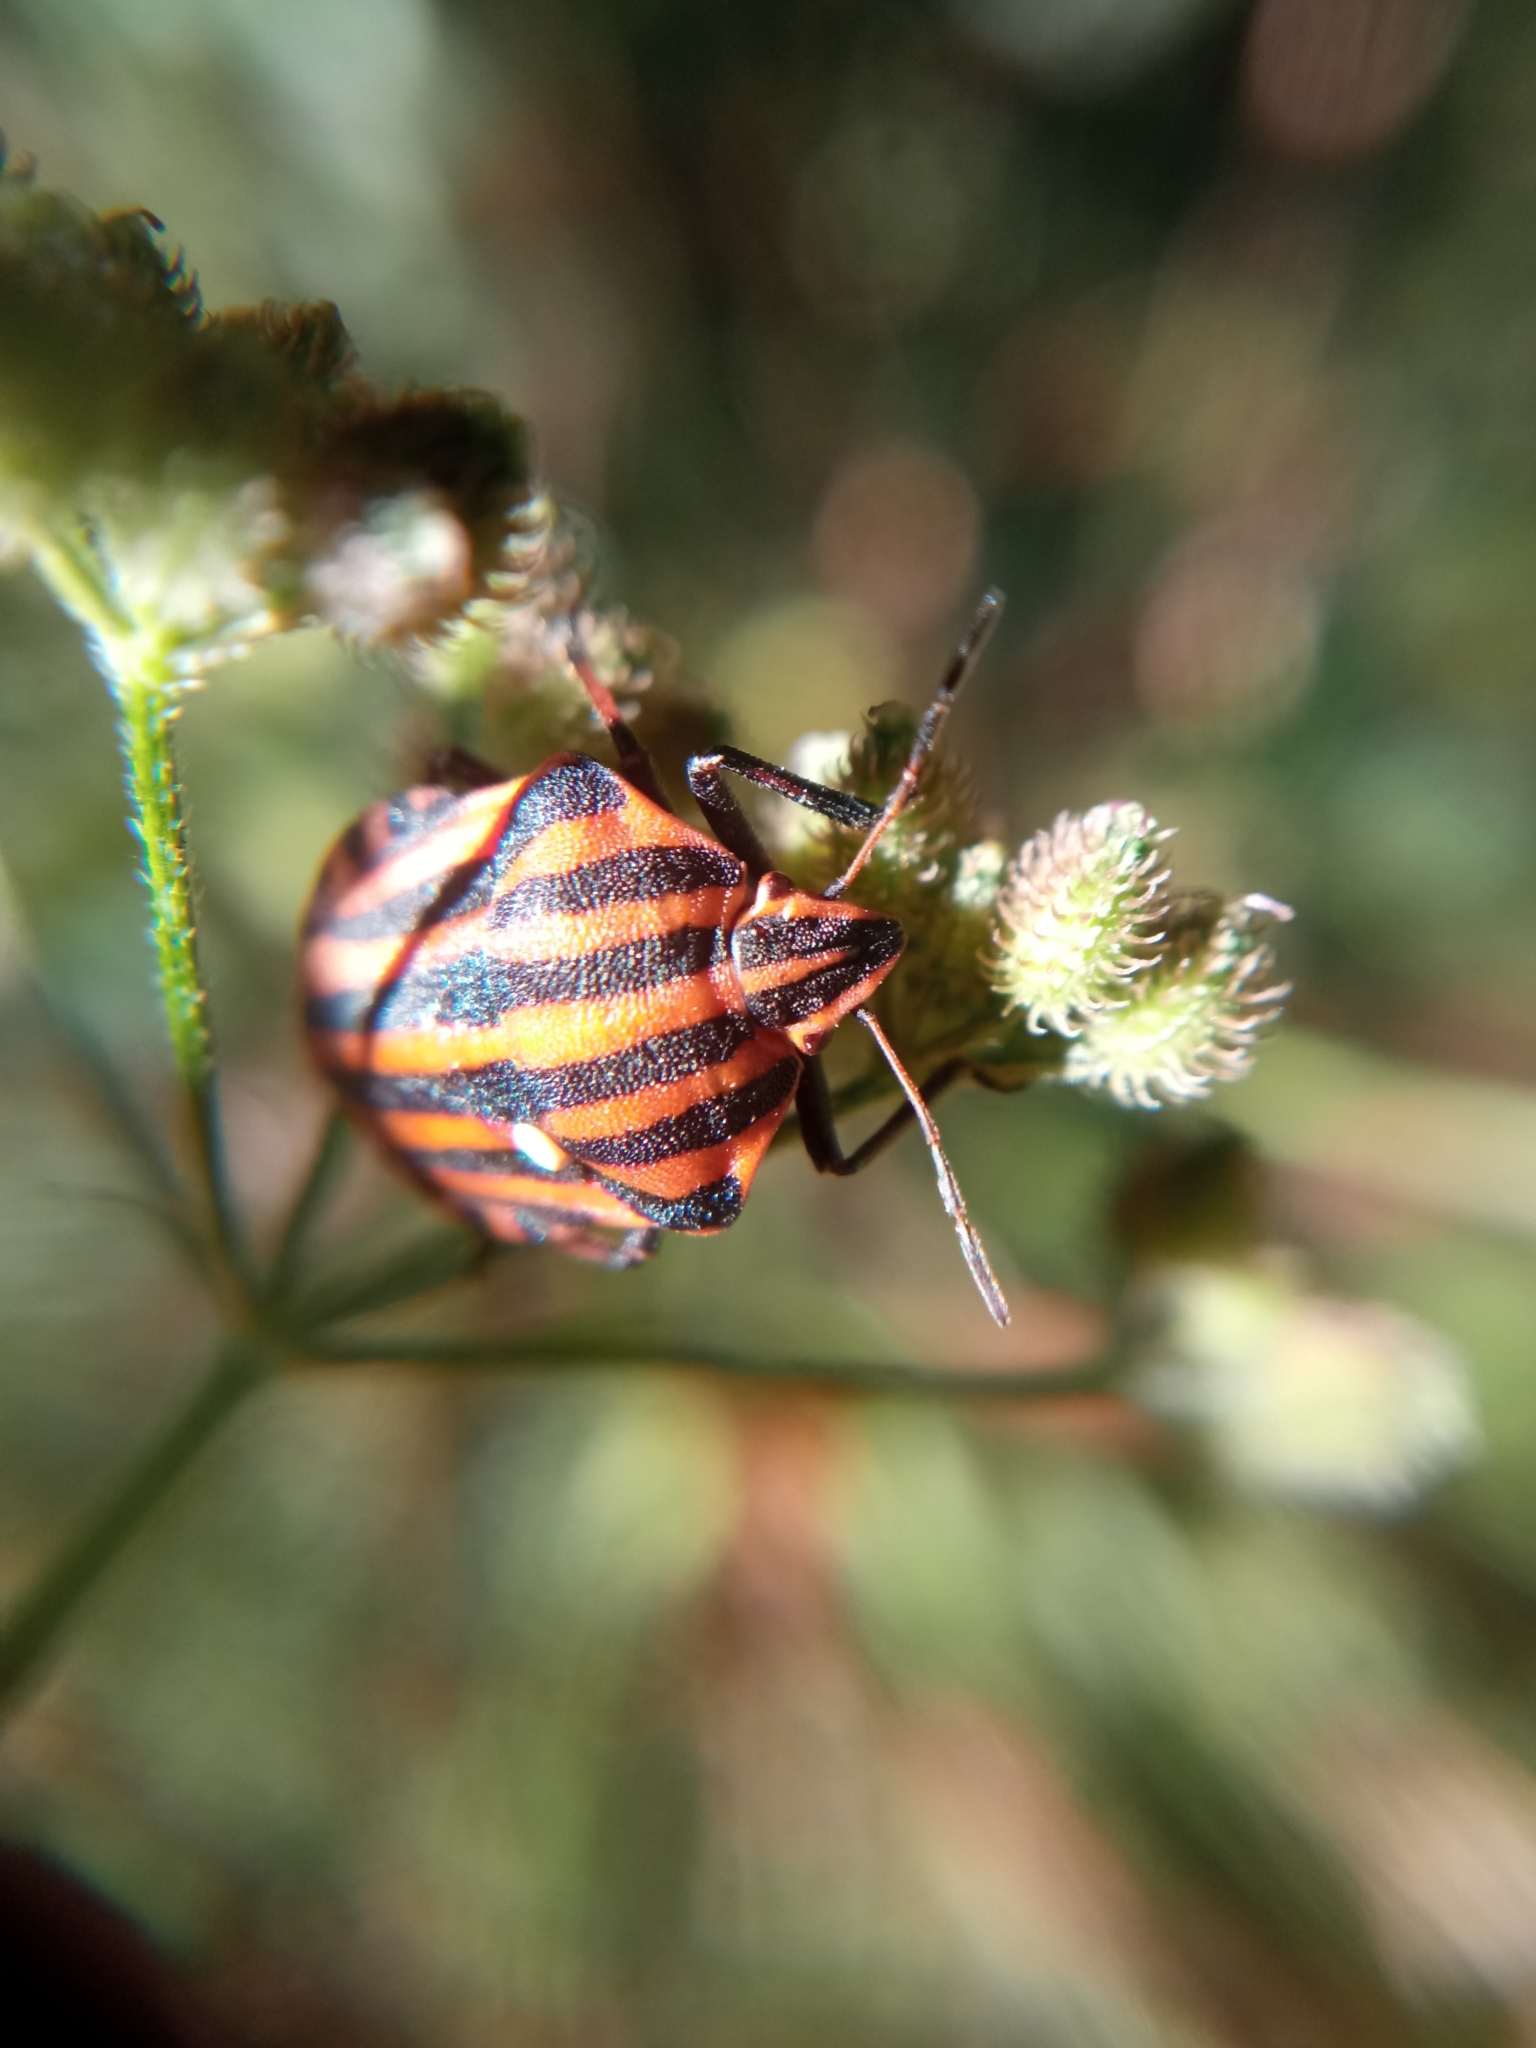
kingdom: Animalia
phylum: Arthropoda
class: Insecta
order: Hemiptera
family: Pentatomidae
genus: Graphosoma
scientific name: Graphosoma italicum
